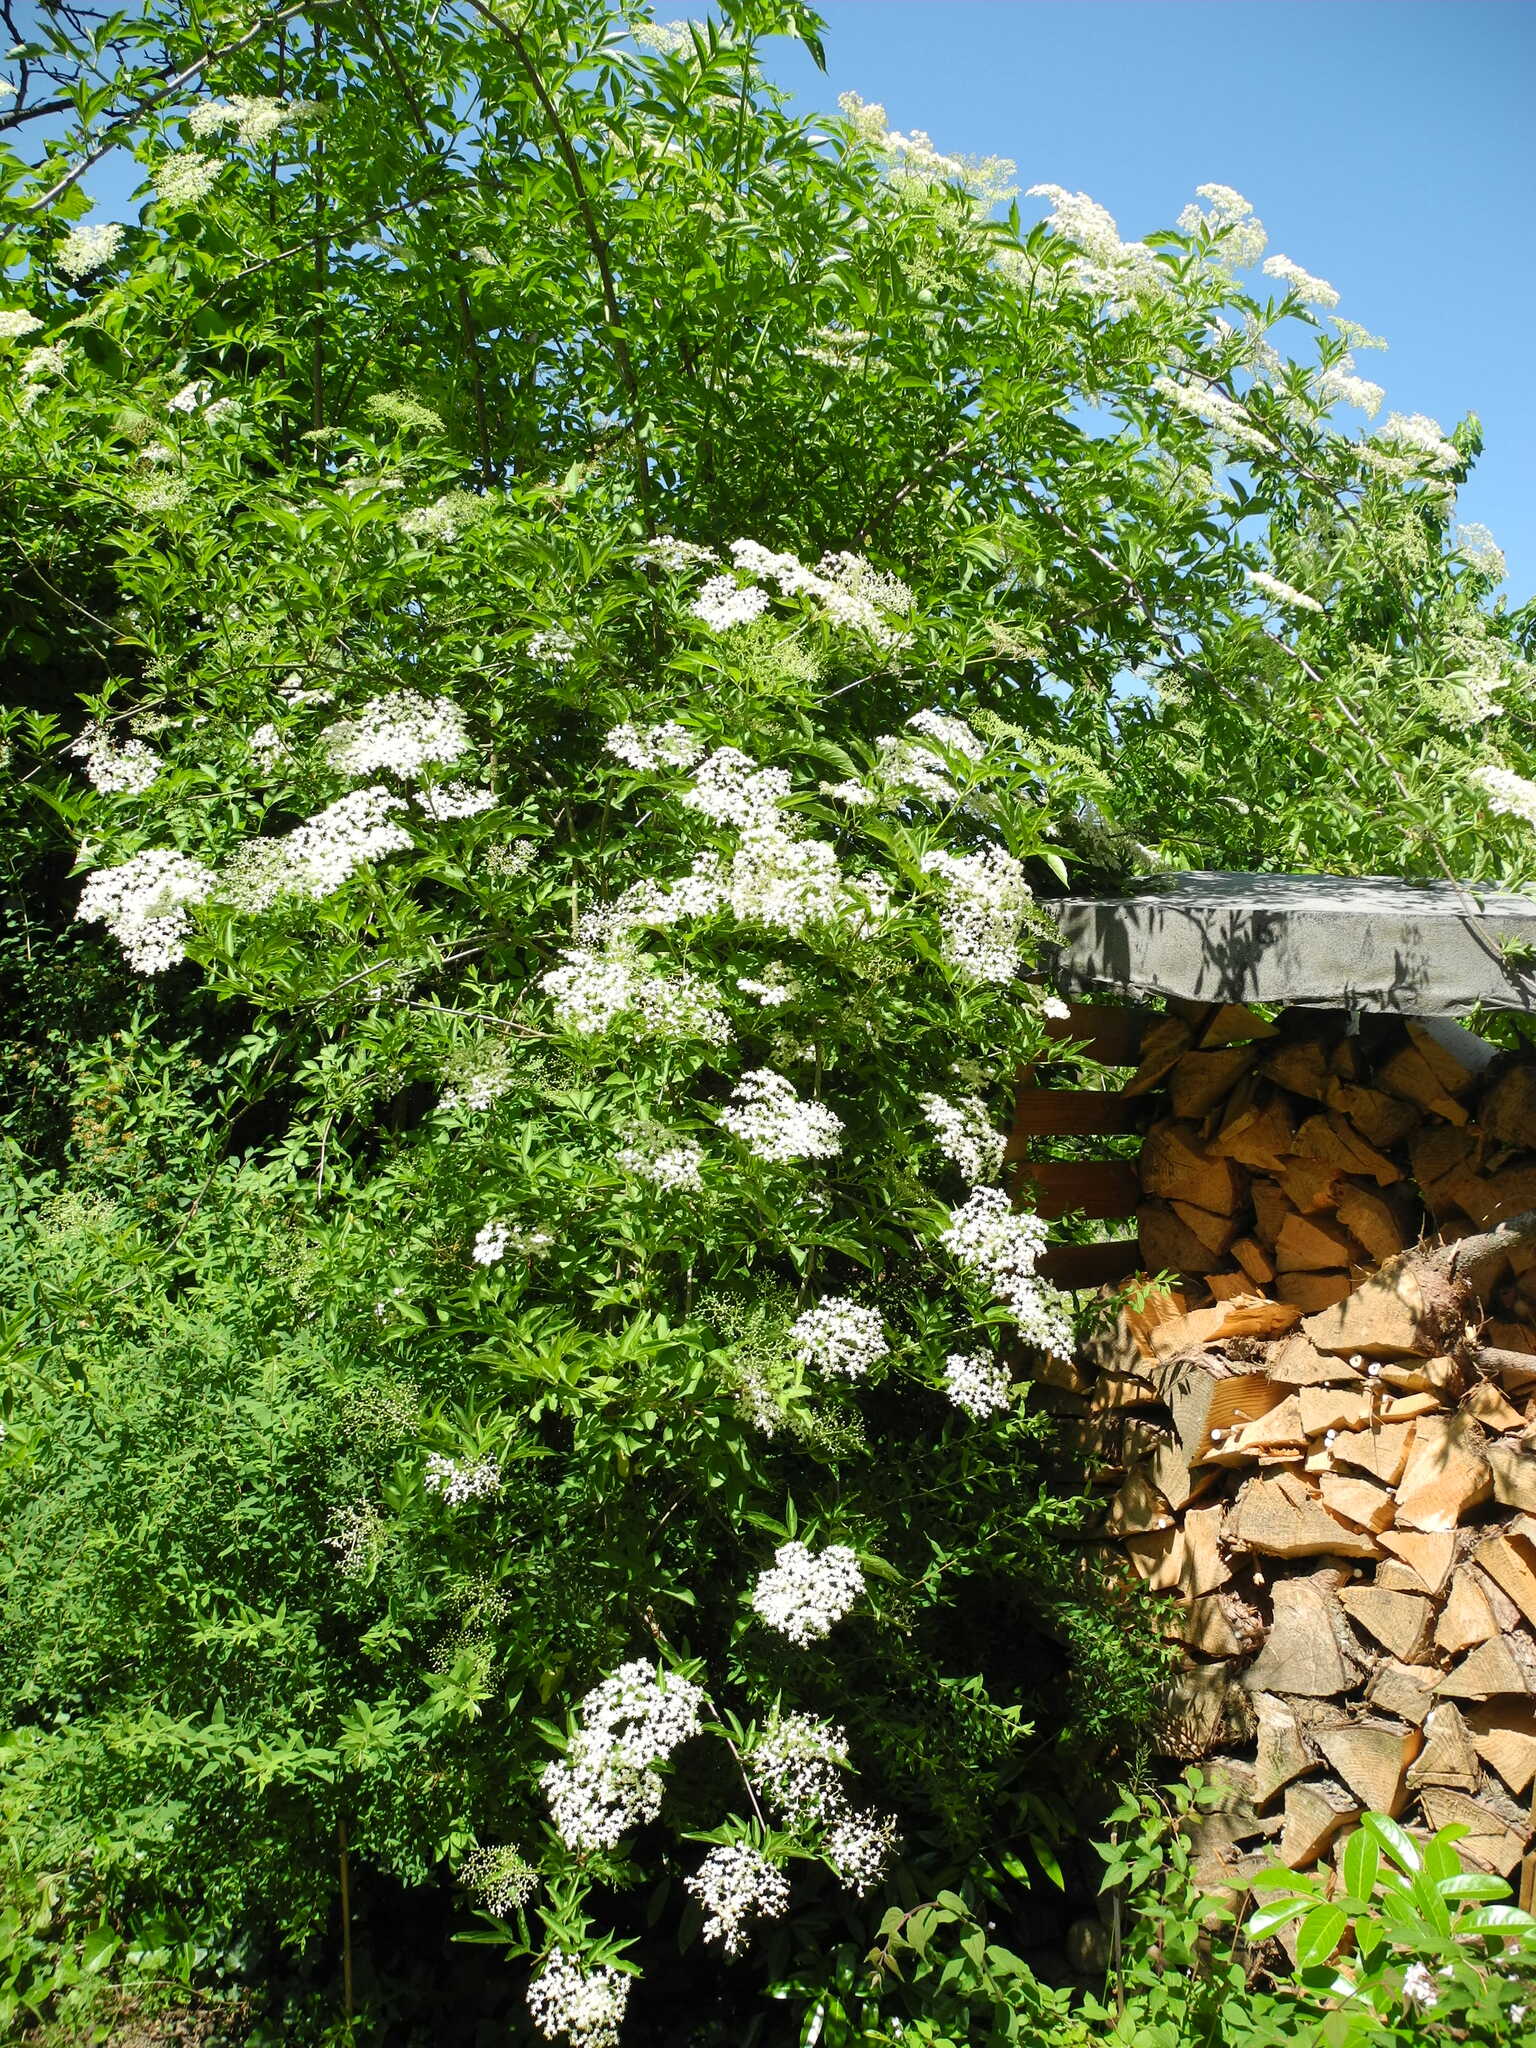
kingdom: Plantae
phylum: Tracheophyta
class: Magnoliopsida
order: Dipsacales
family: Viburnaceae
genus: Sambucus
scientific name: Sambucus nigra
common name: Elder
